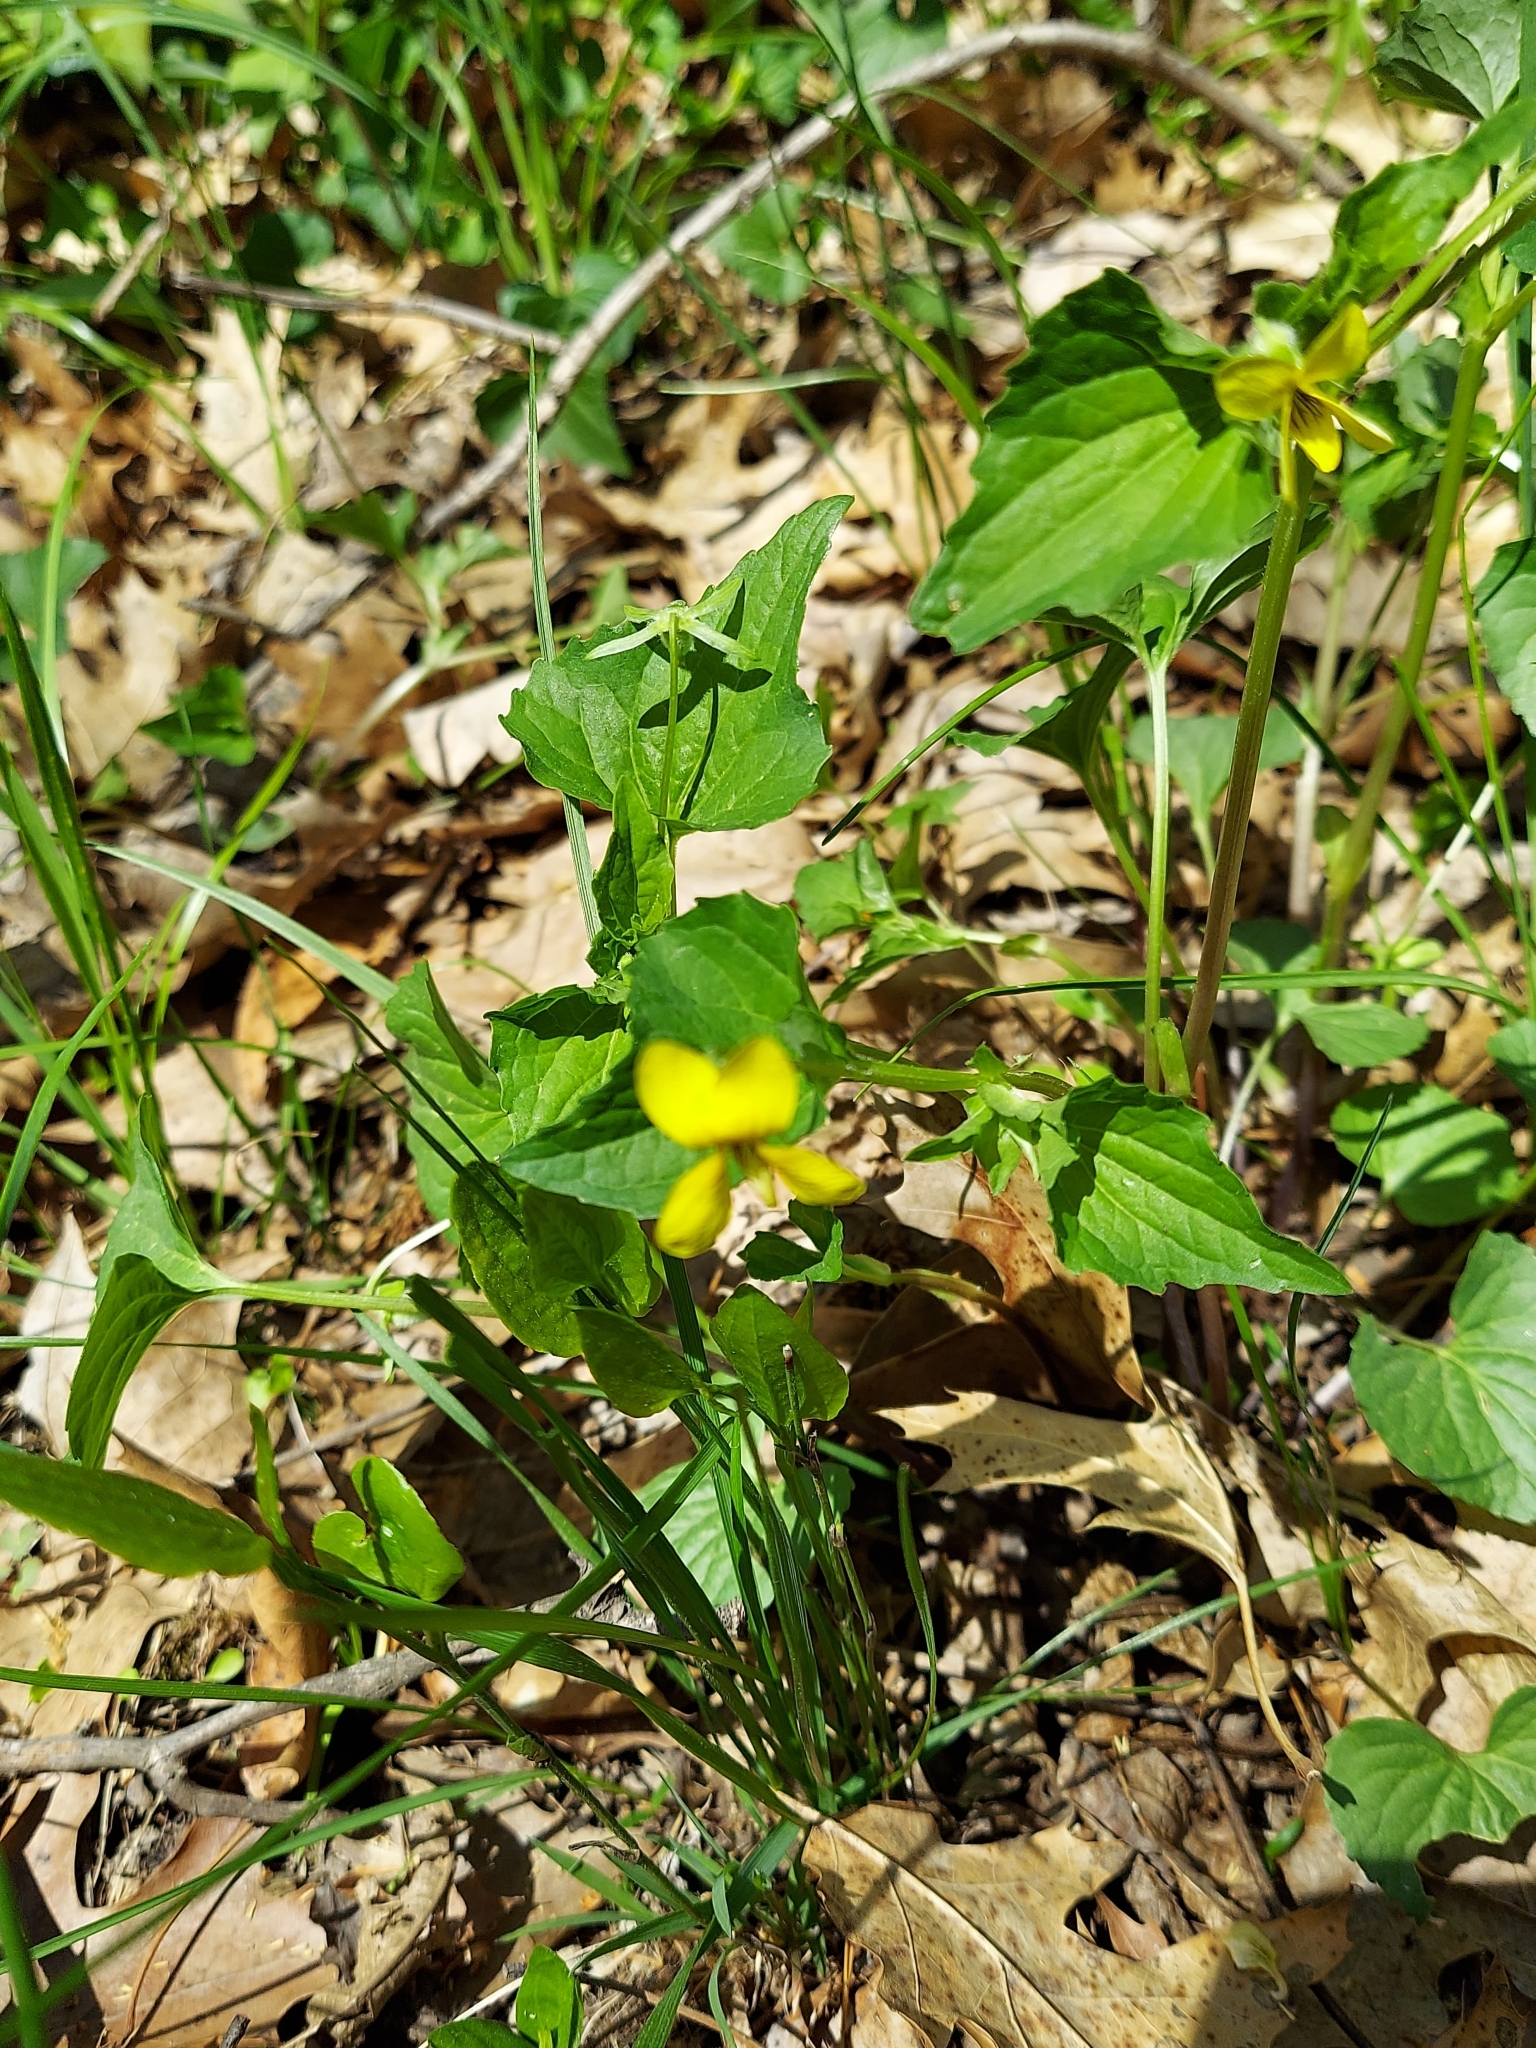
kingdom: Plantae
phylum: Tracheophyta
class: Magnoliopsida
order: Malpighiales
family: Violaceae
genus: Viola
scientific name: Viola eriocarpa
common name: Smooth yellow violet
